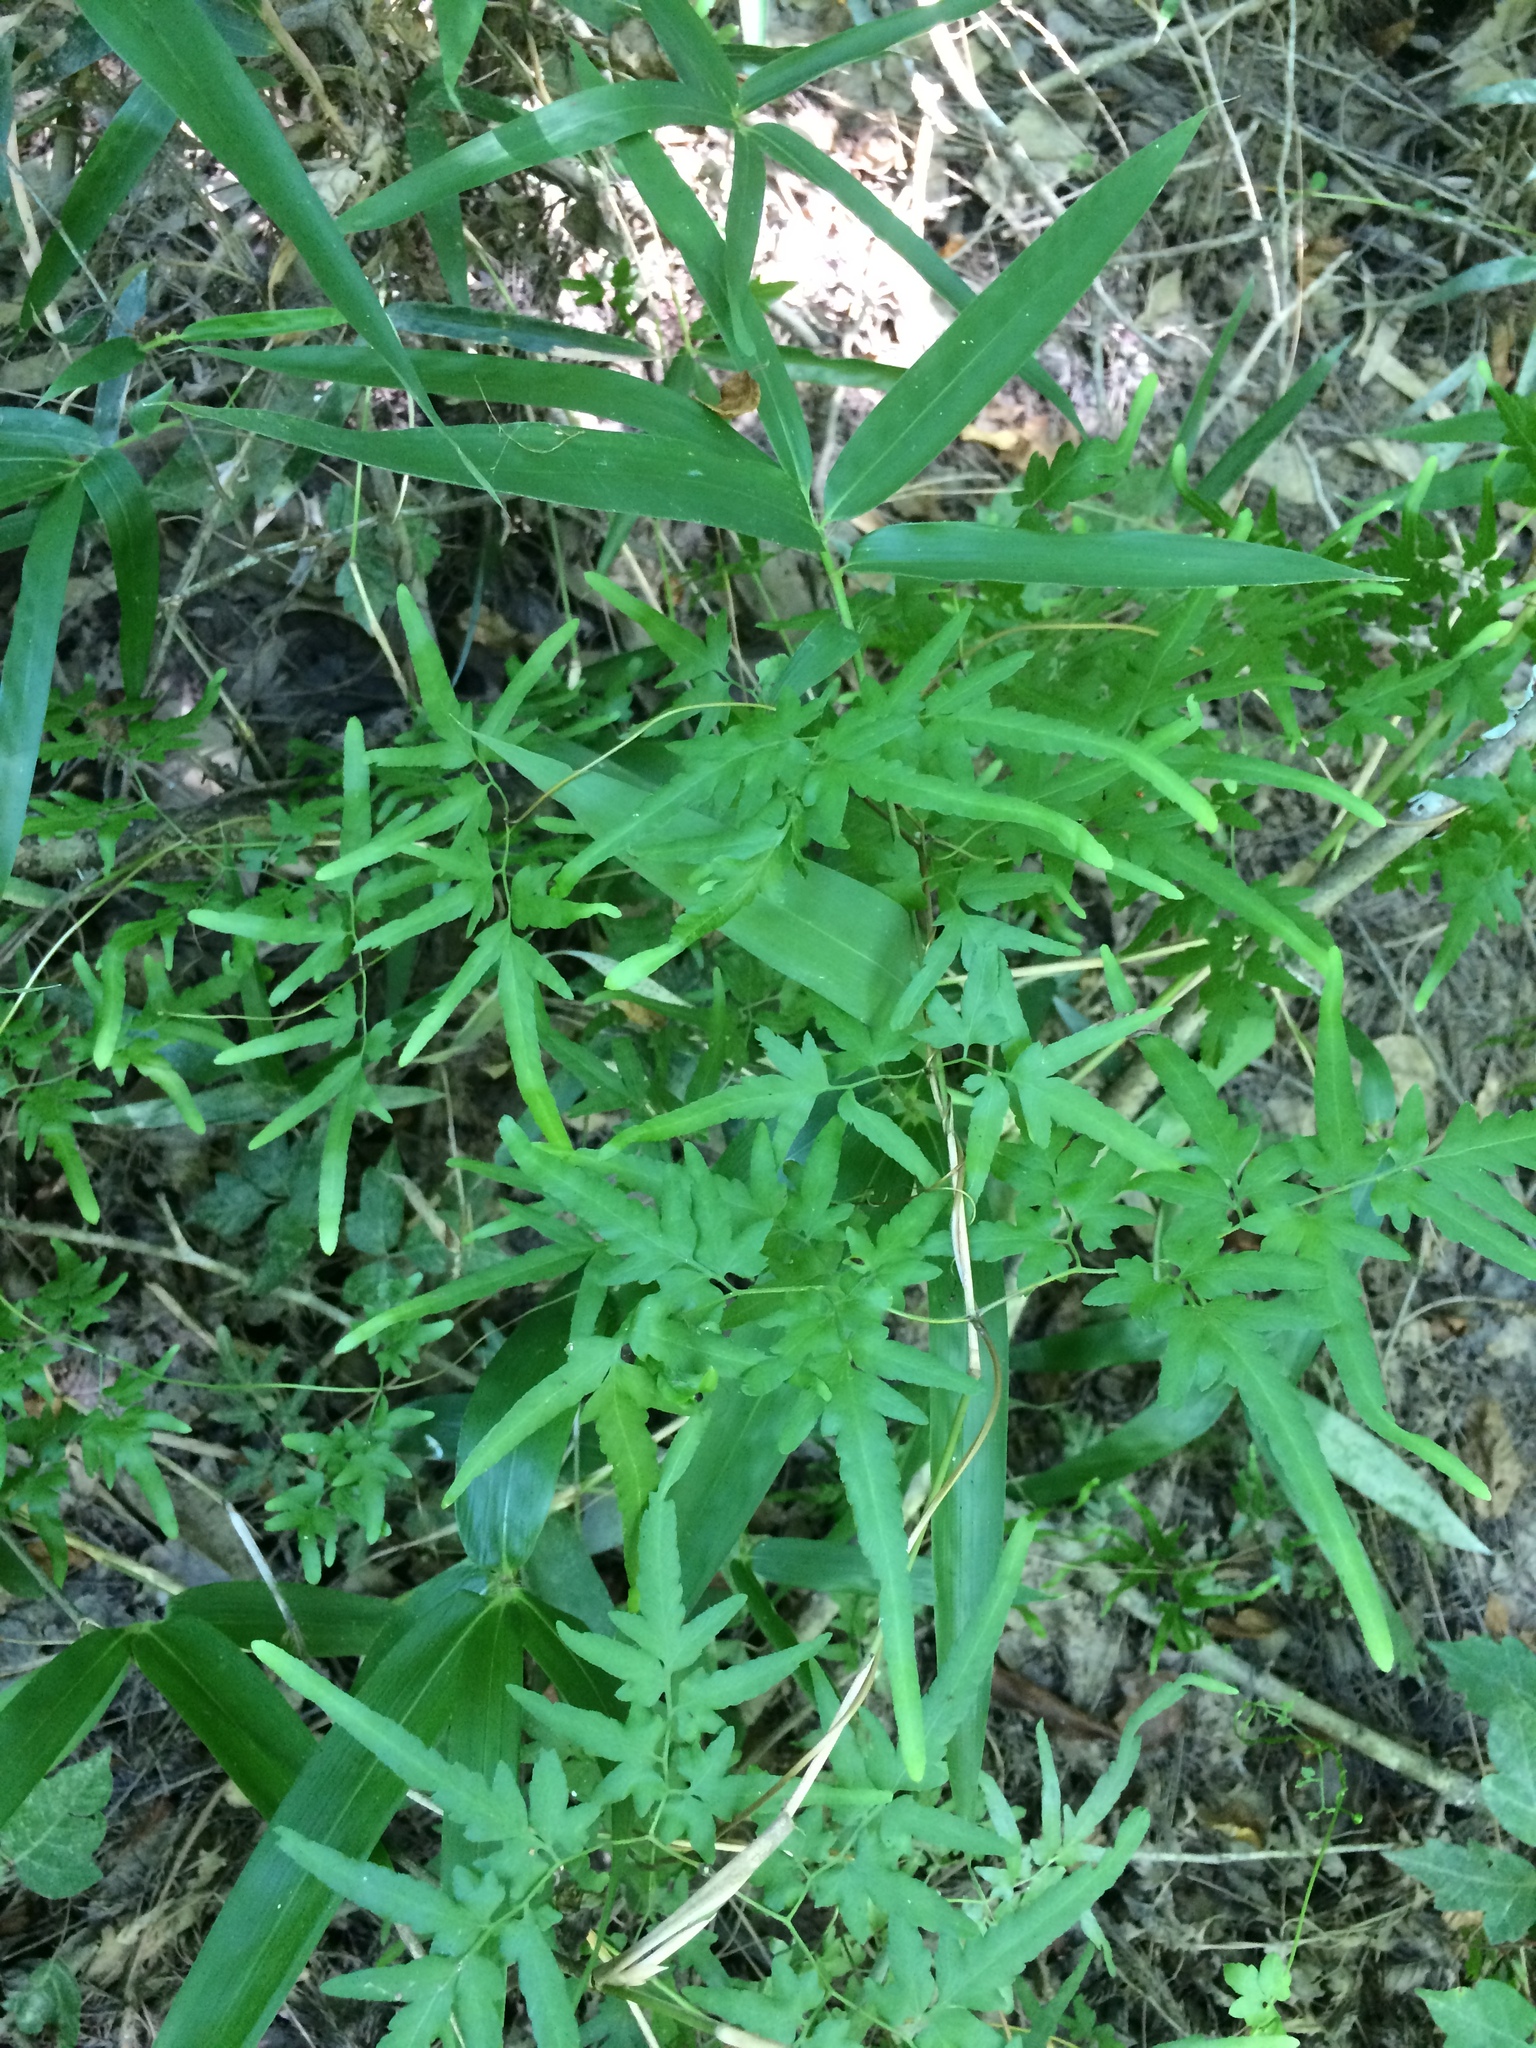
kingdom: Plantae
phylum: Tracheophyta
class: Polypodiopsida
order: Schizaeales
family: Lygodiaceae
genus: Lygodium
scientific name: Lygodium japonicum
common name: Japanese climbing fern
